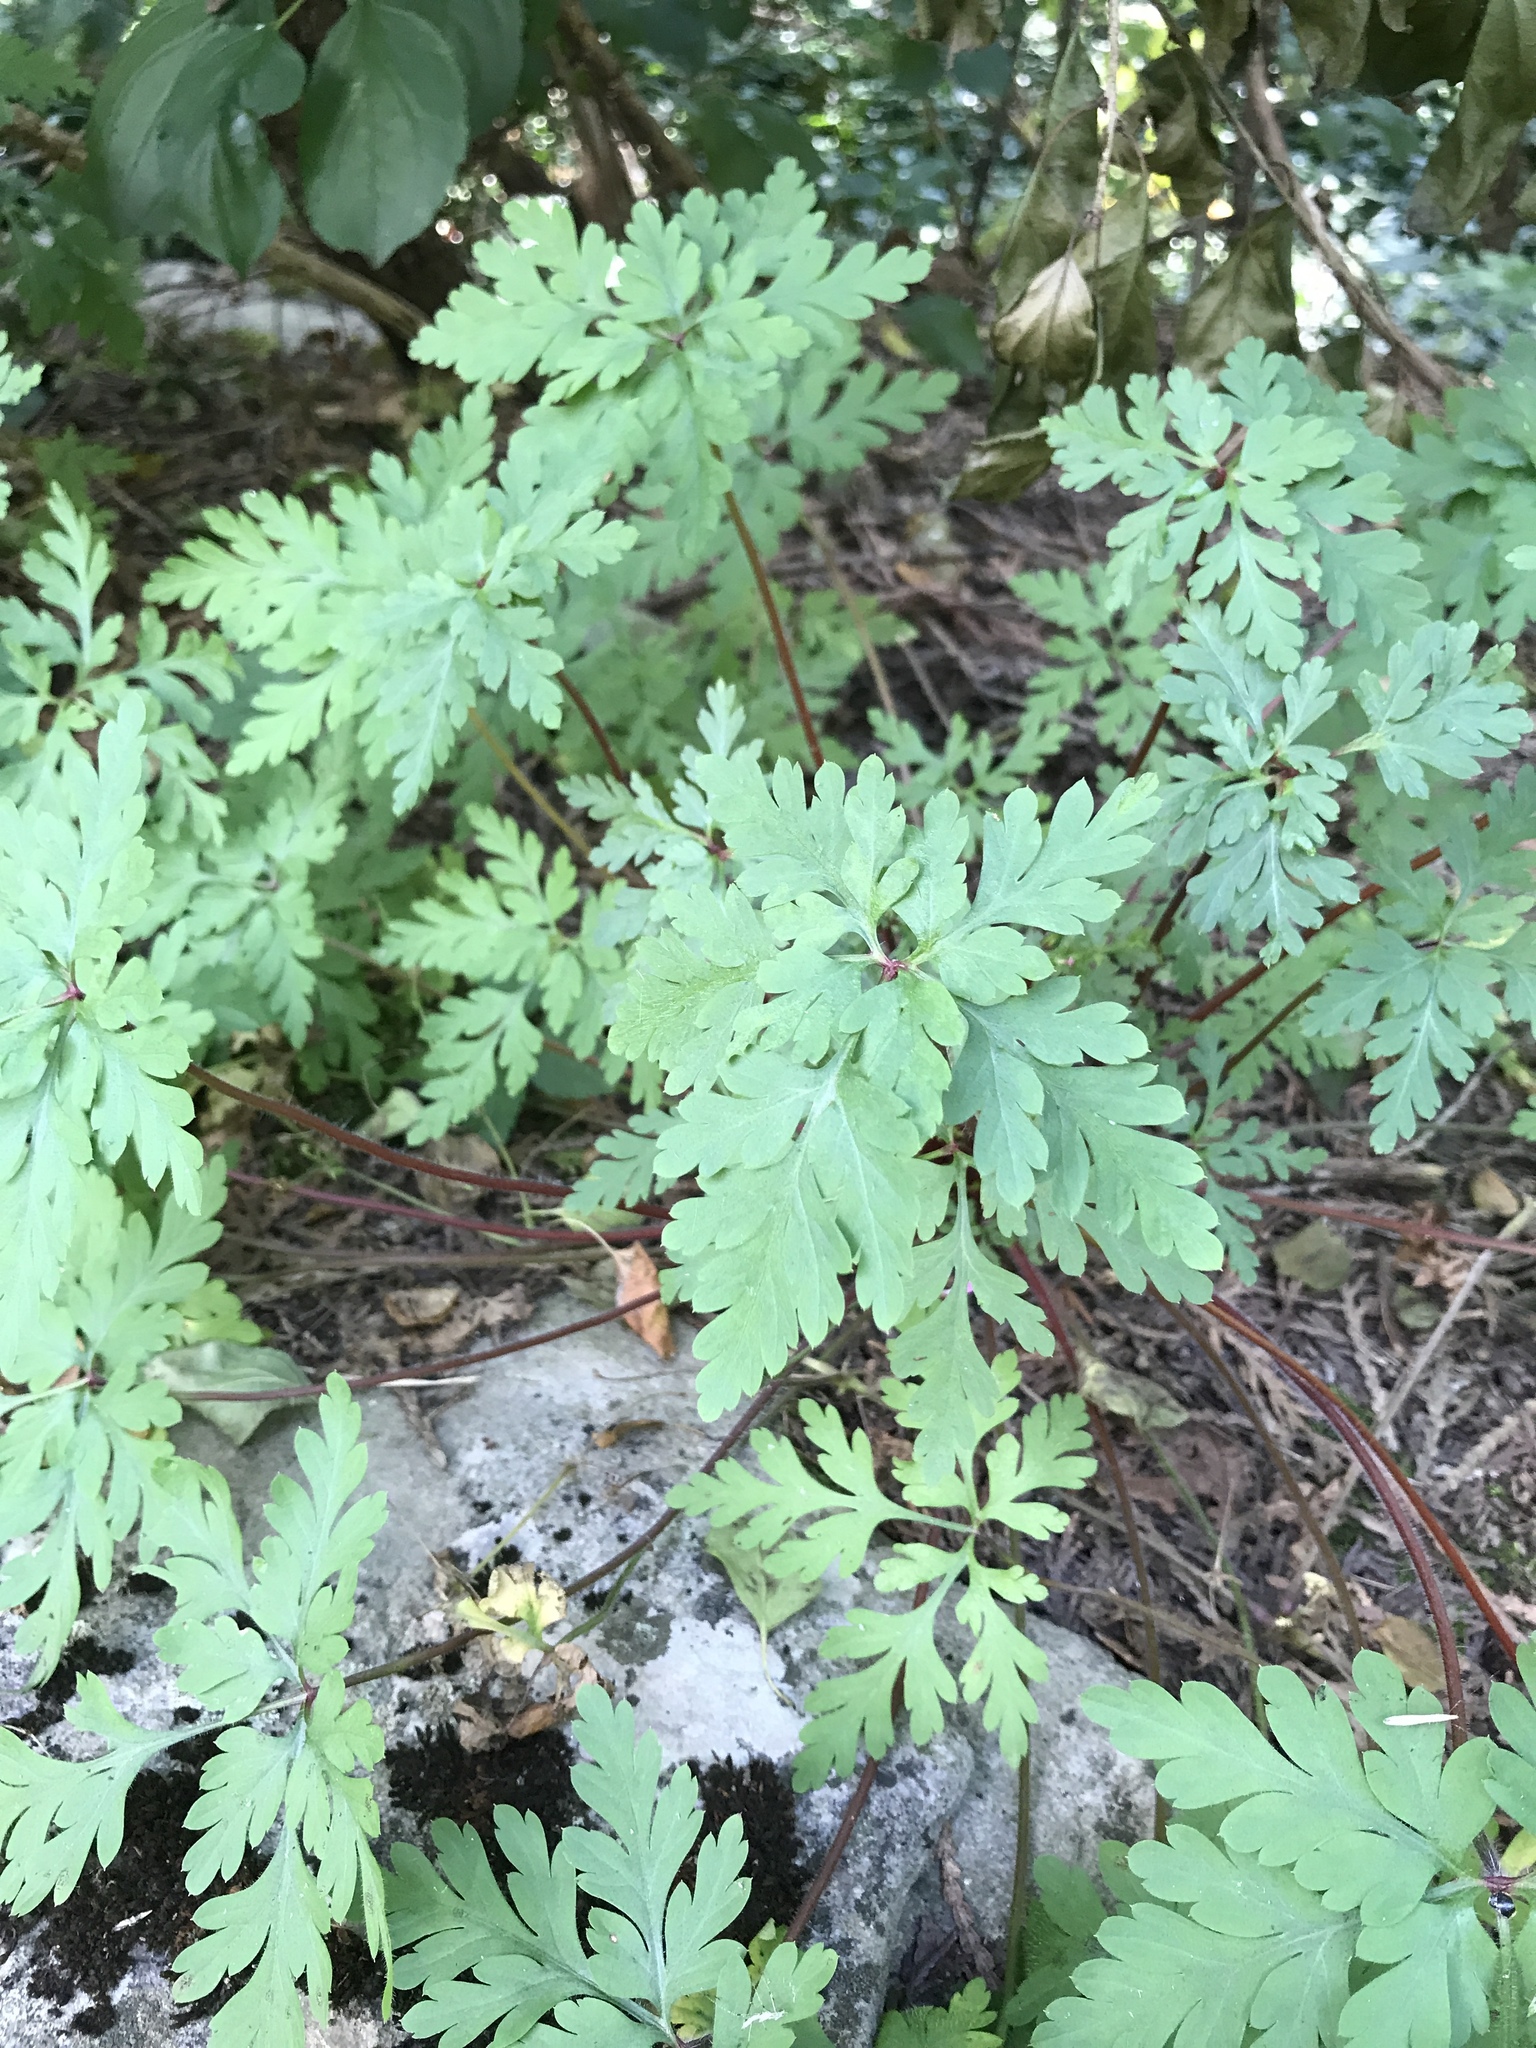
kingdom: Plantae
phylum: Tracheophyta
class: Magnoliopsida
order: Geraniales
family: Geraniaceae
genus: Geranium
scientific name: Geranium robertianum
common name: Herb-robert
